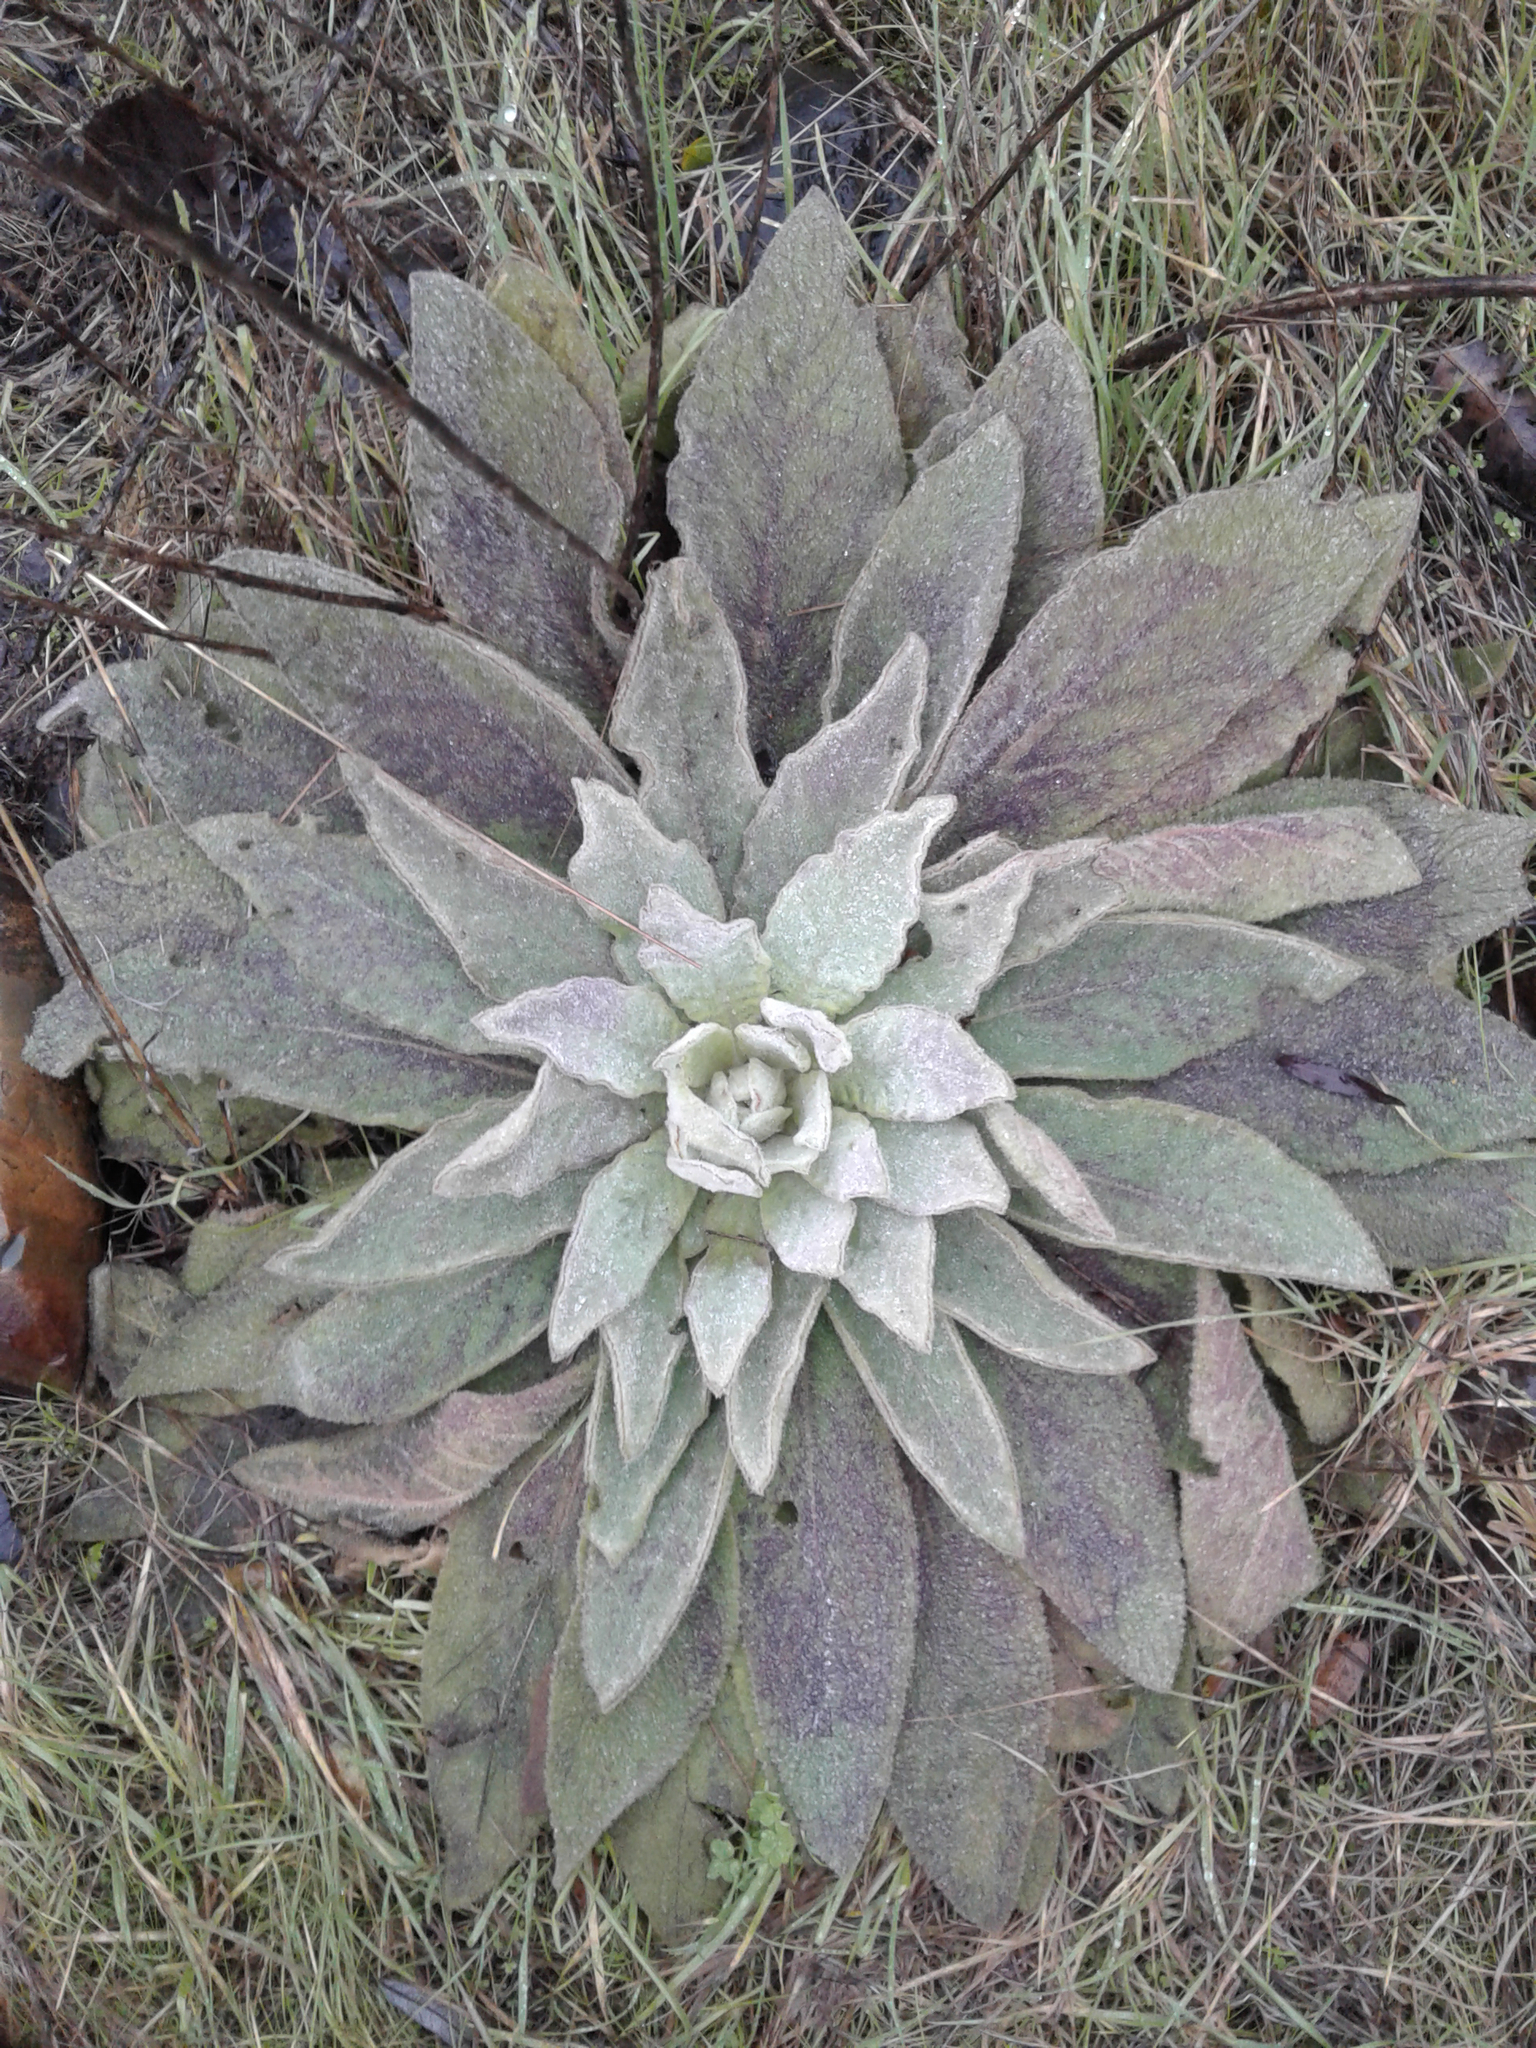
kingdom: Plantae
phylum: Tracheophyta
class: Magnoliopsida
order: Lamiales
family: Scrophulariaceae
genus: Verbascum
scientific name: Verbascum thapsus
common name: Common mullein
